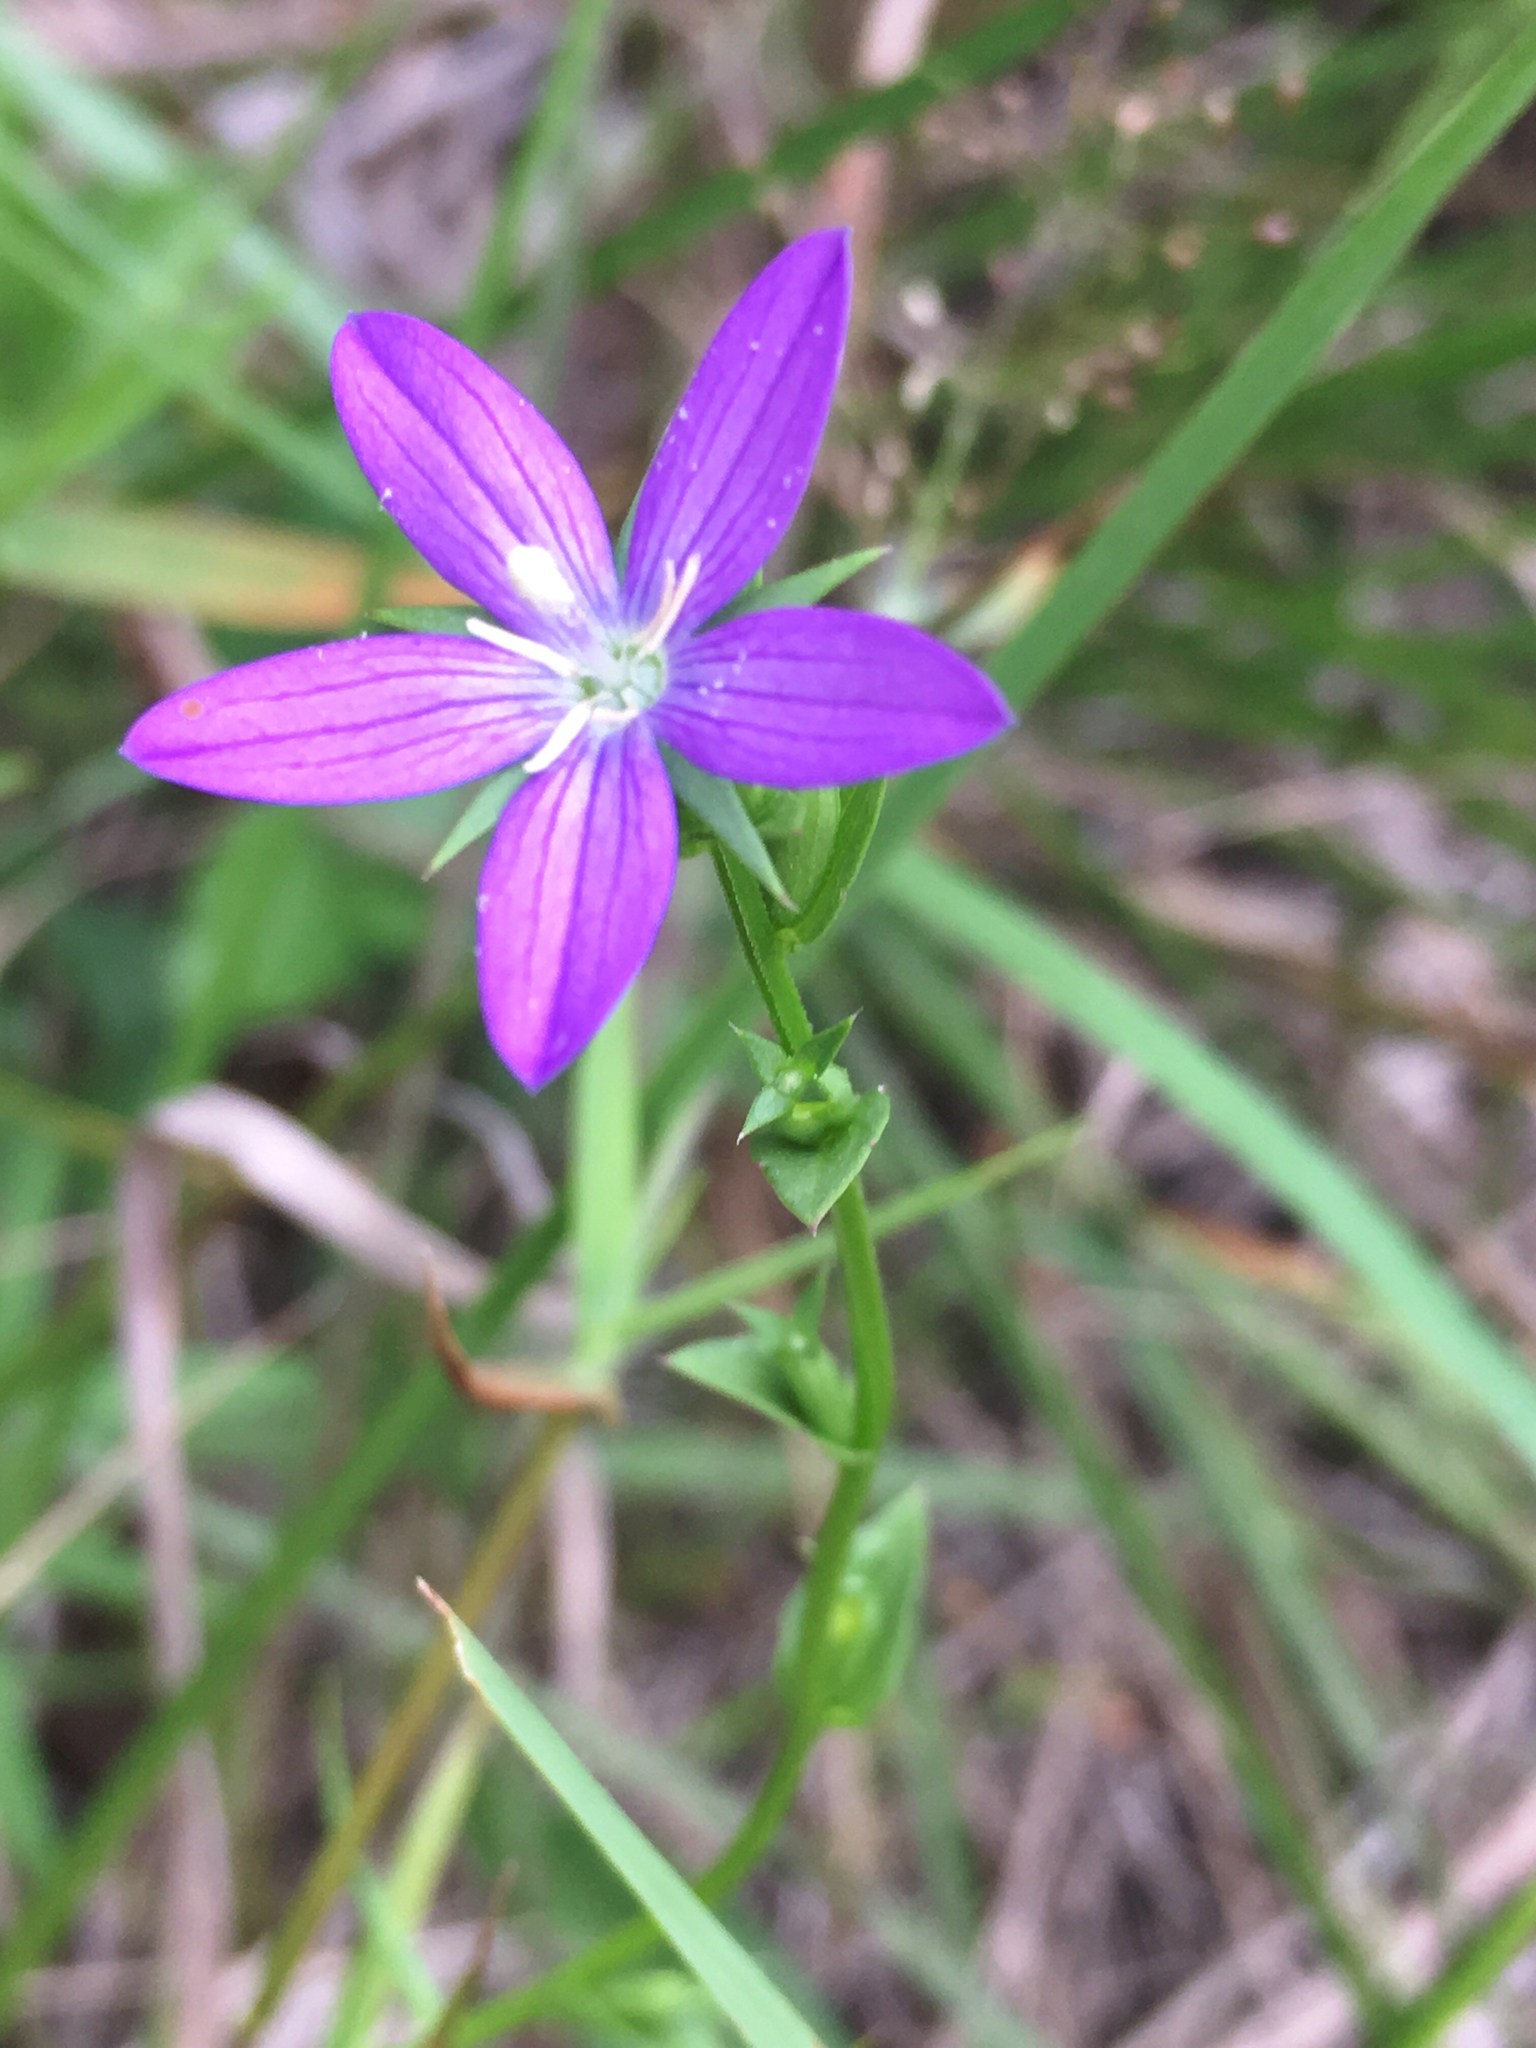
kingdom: Plantae
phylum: Tracheophyta
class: Magnoliopsida
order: Asterales
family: Campanulaceae
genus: Triodanis
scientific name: Triodanis perfoliata
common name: Clasping venus' looking-glass
